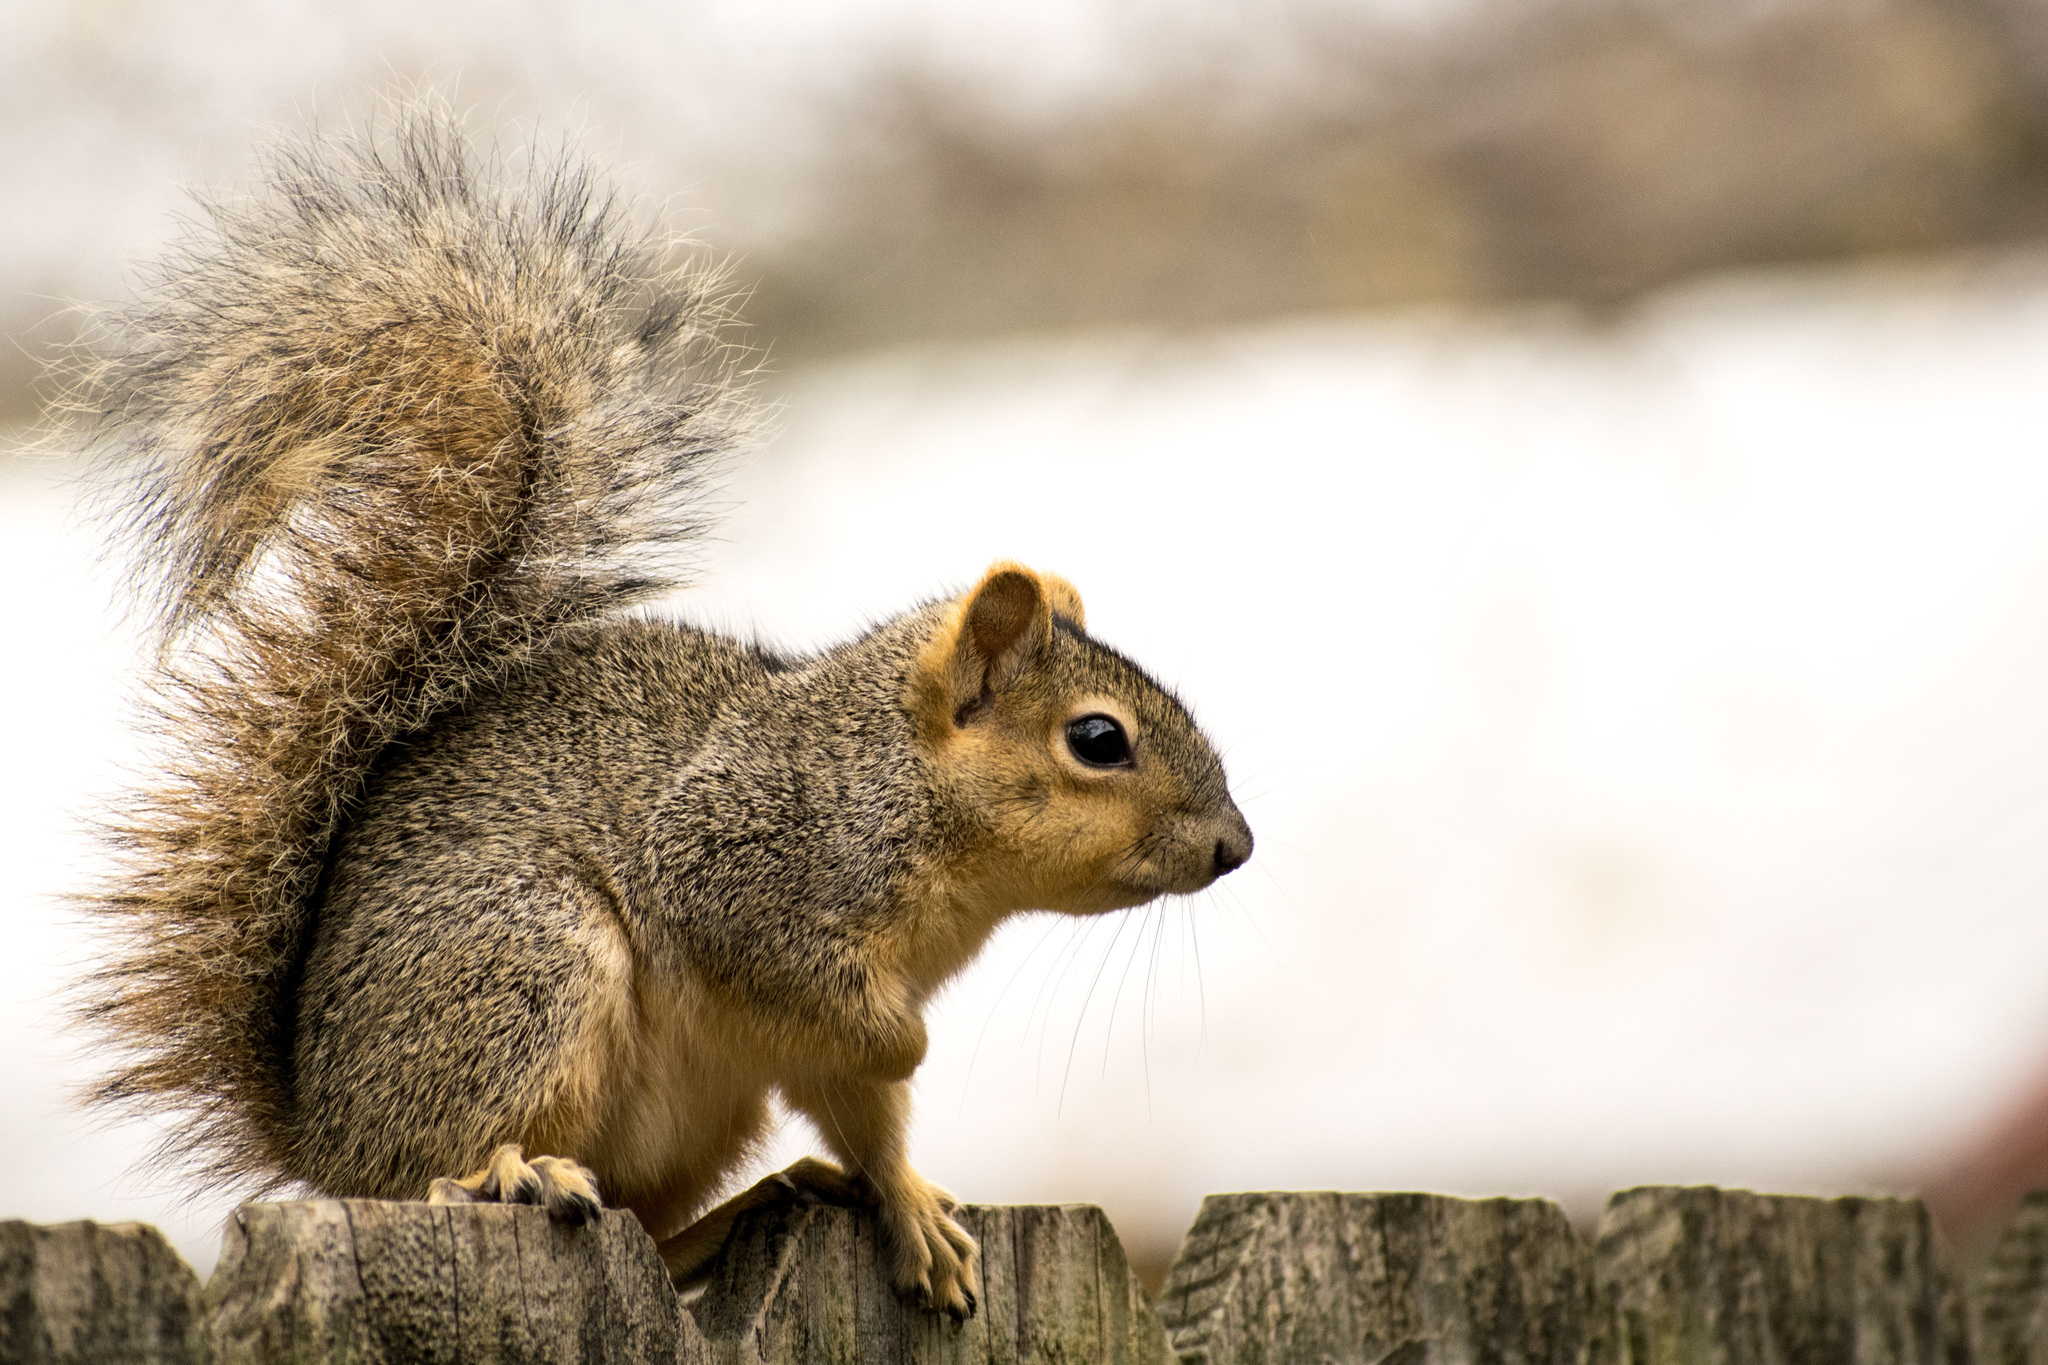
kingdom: Animalia
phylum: Chordata
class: Mammalia
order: Rodentia
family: Sciuridae
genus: Sciurus
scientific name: Sciurus niger
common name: Fox squirrel
